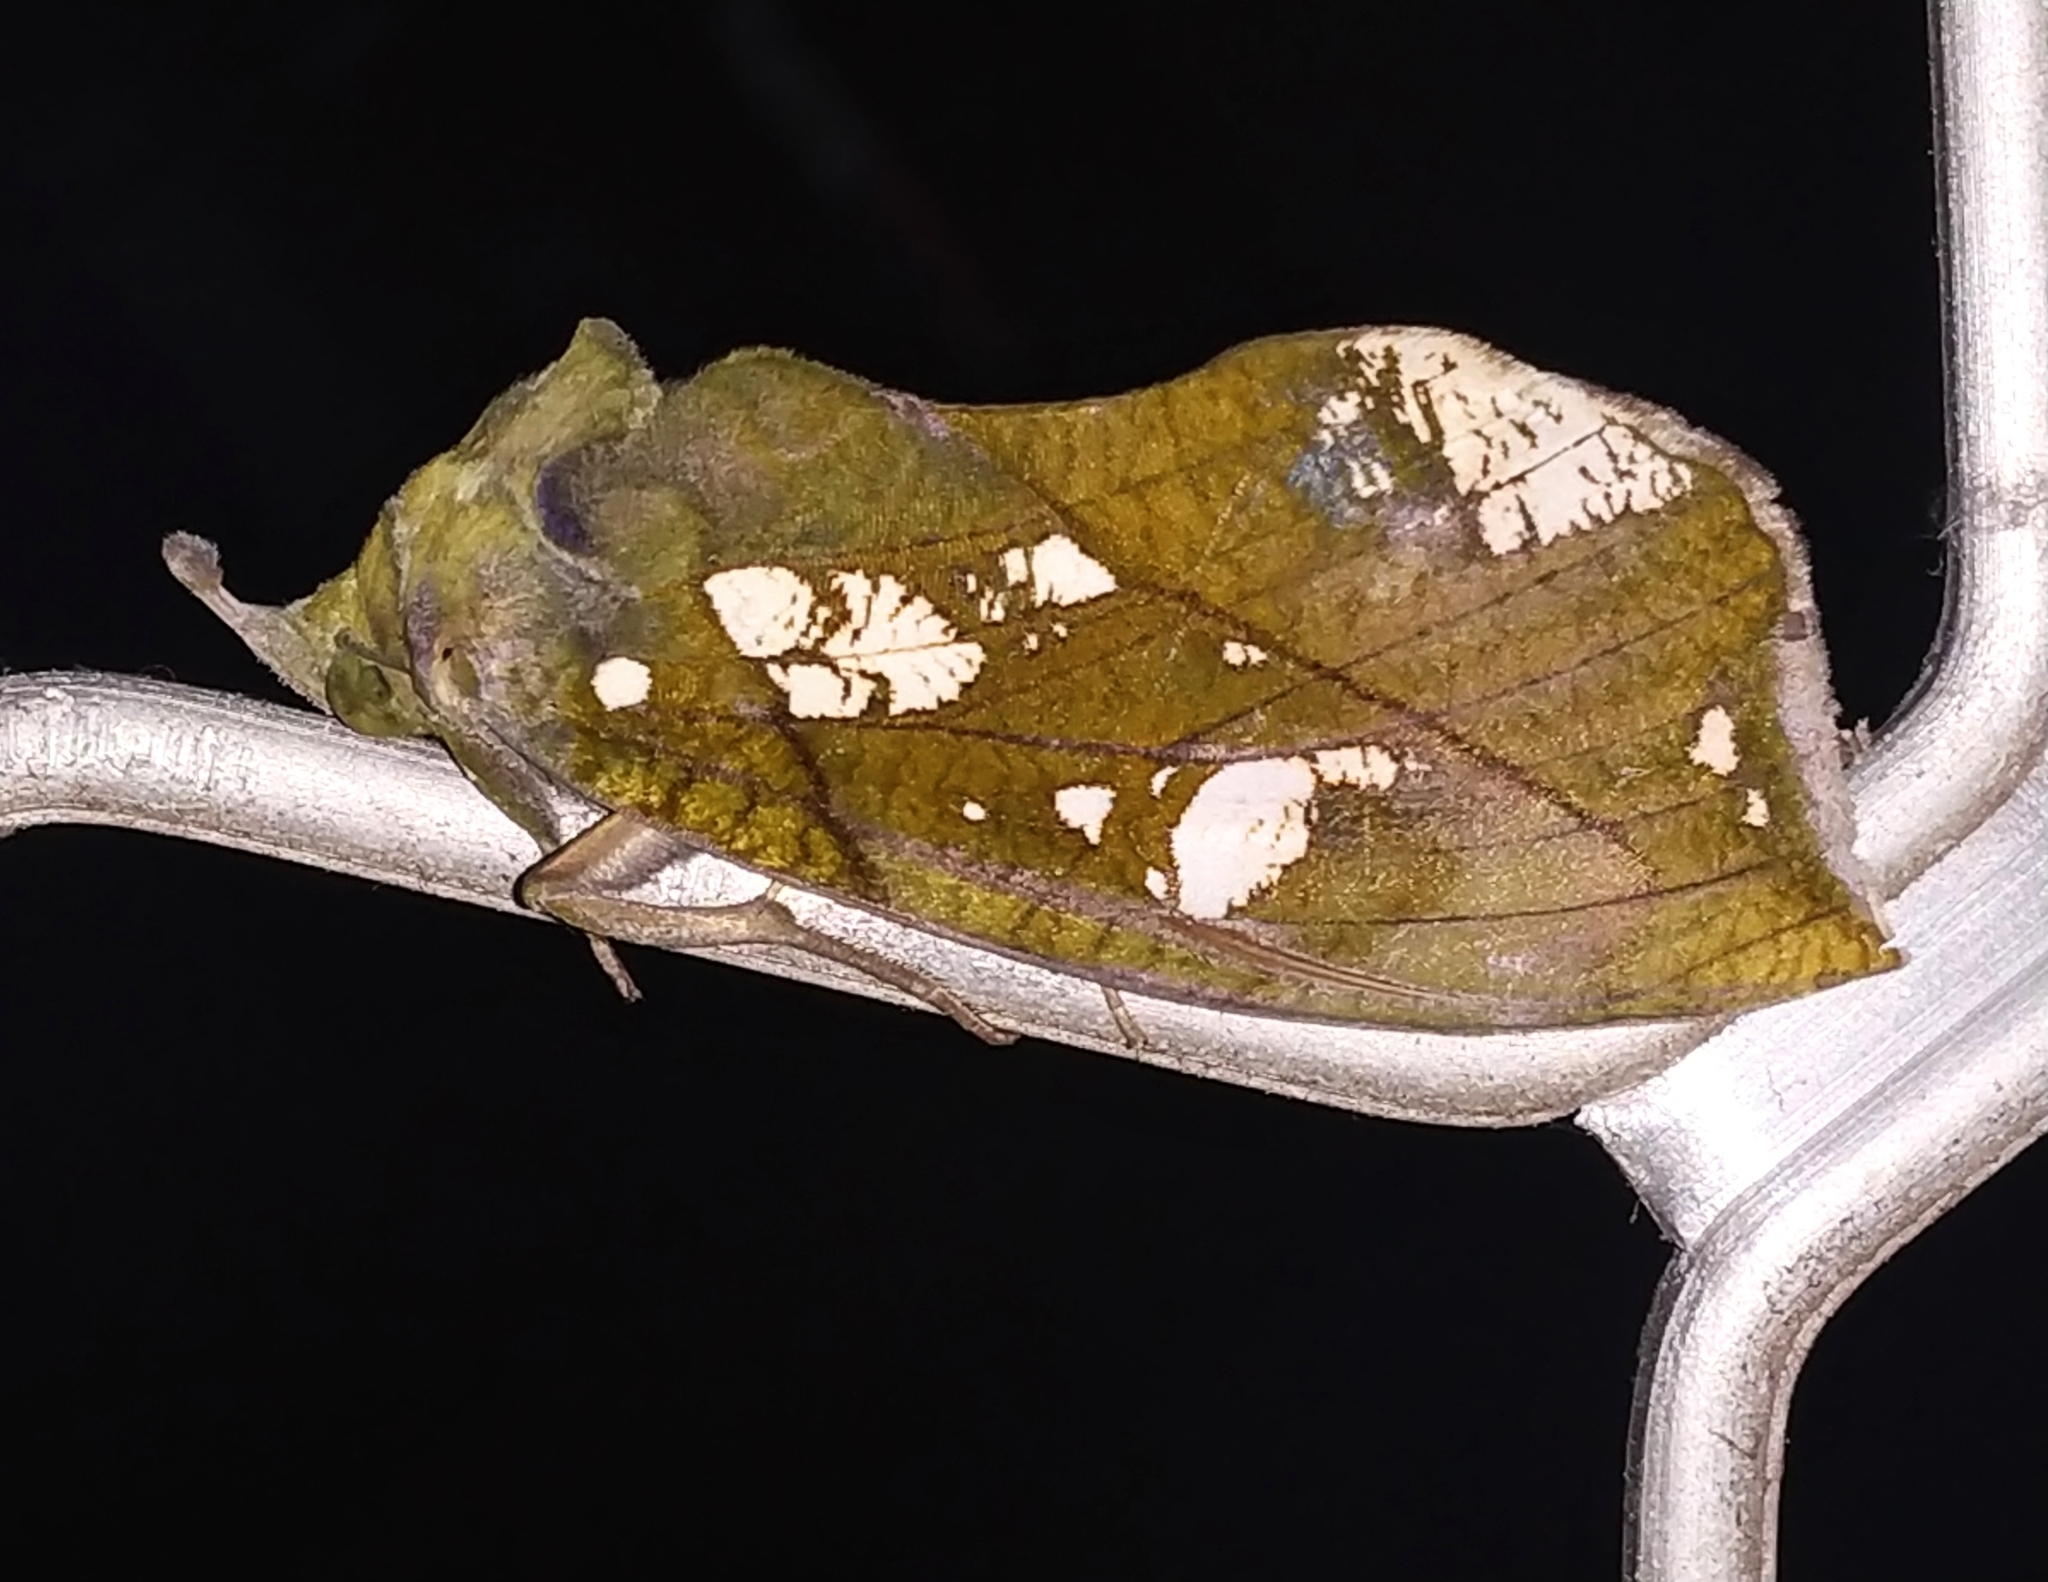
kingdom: Animalia
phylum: Arthropoda
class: Insecta
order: Lepidoptera
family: Erebidae
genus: Eudocima
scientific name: Eudocima hypermnestra
